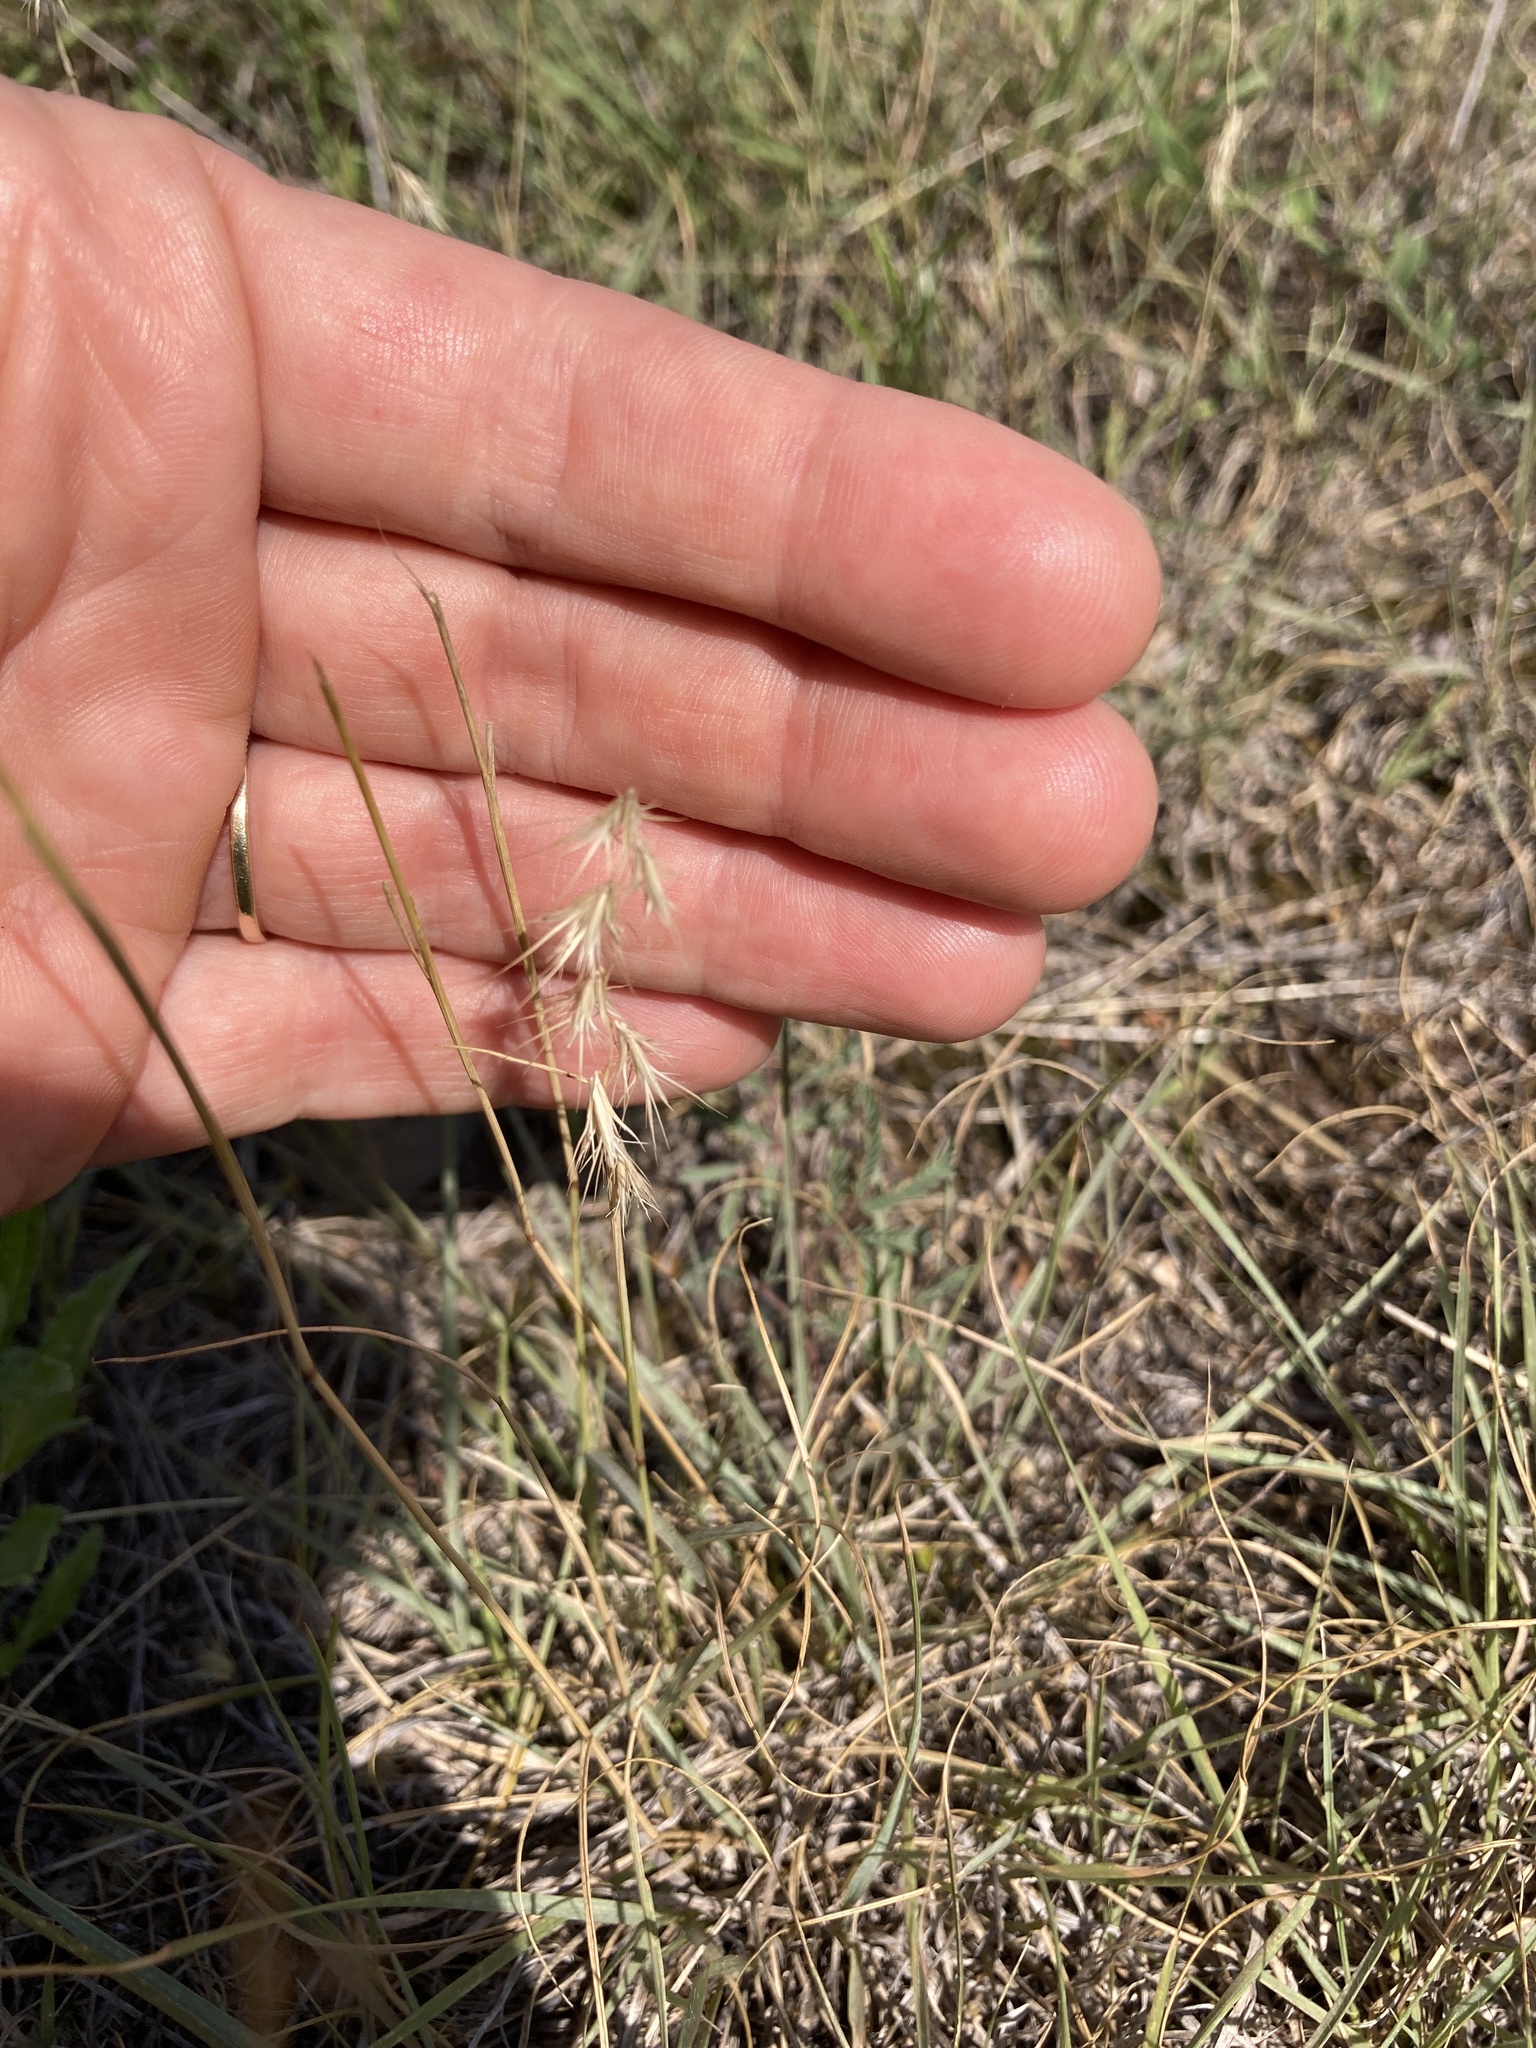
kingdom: Plantae
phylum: Tracheophyta
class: Liliopsida
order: Poales
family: Poaceae
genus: Bouteloua
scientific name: Bouteloua rigidiseta
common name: Texas grama
